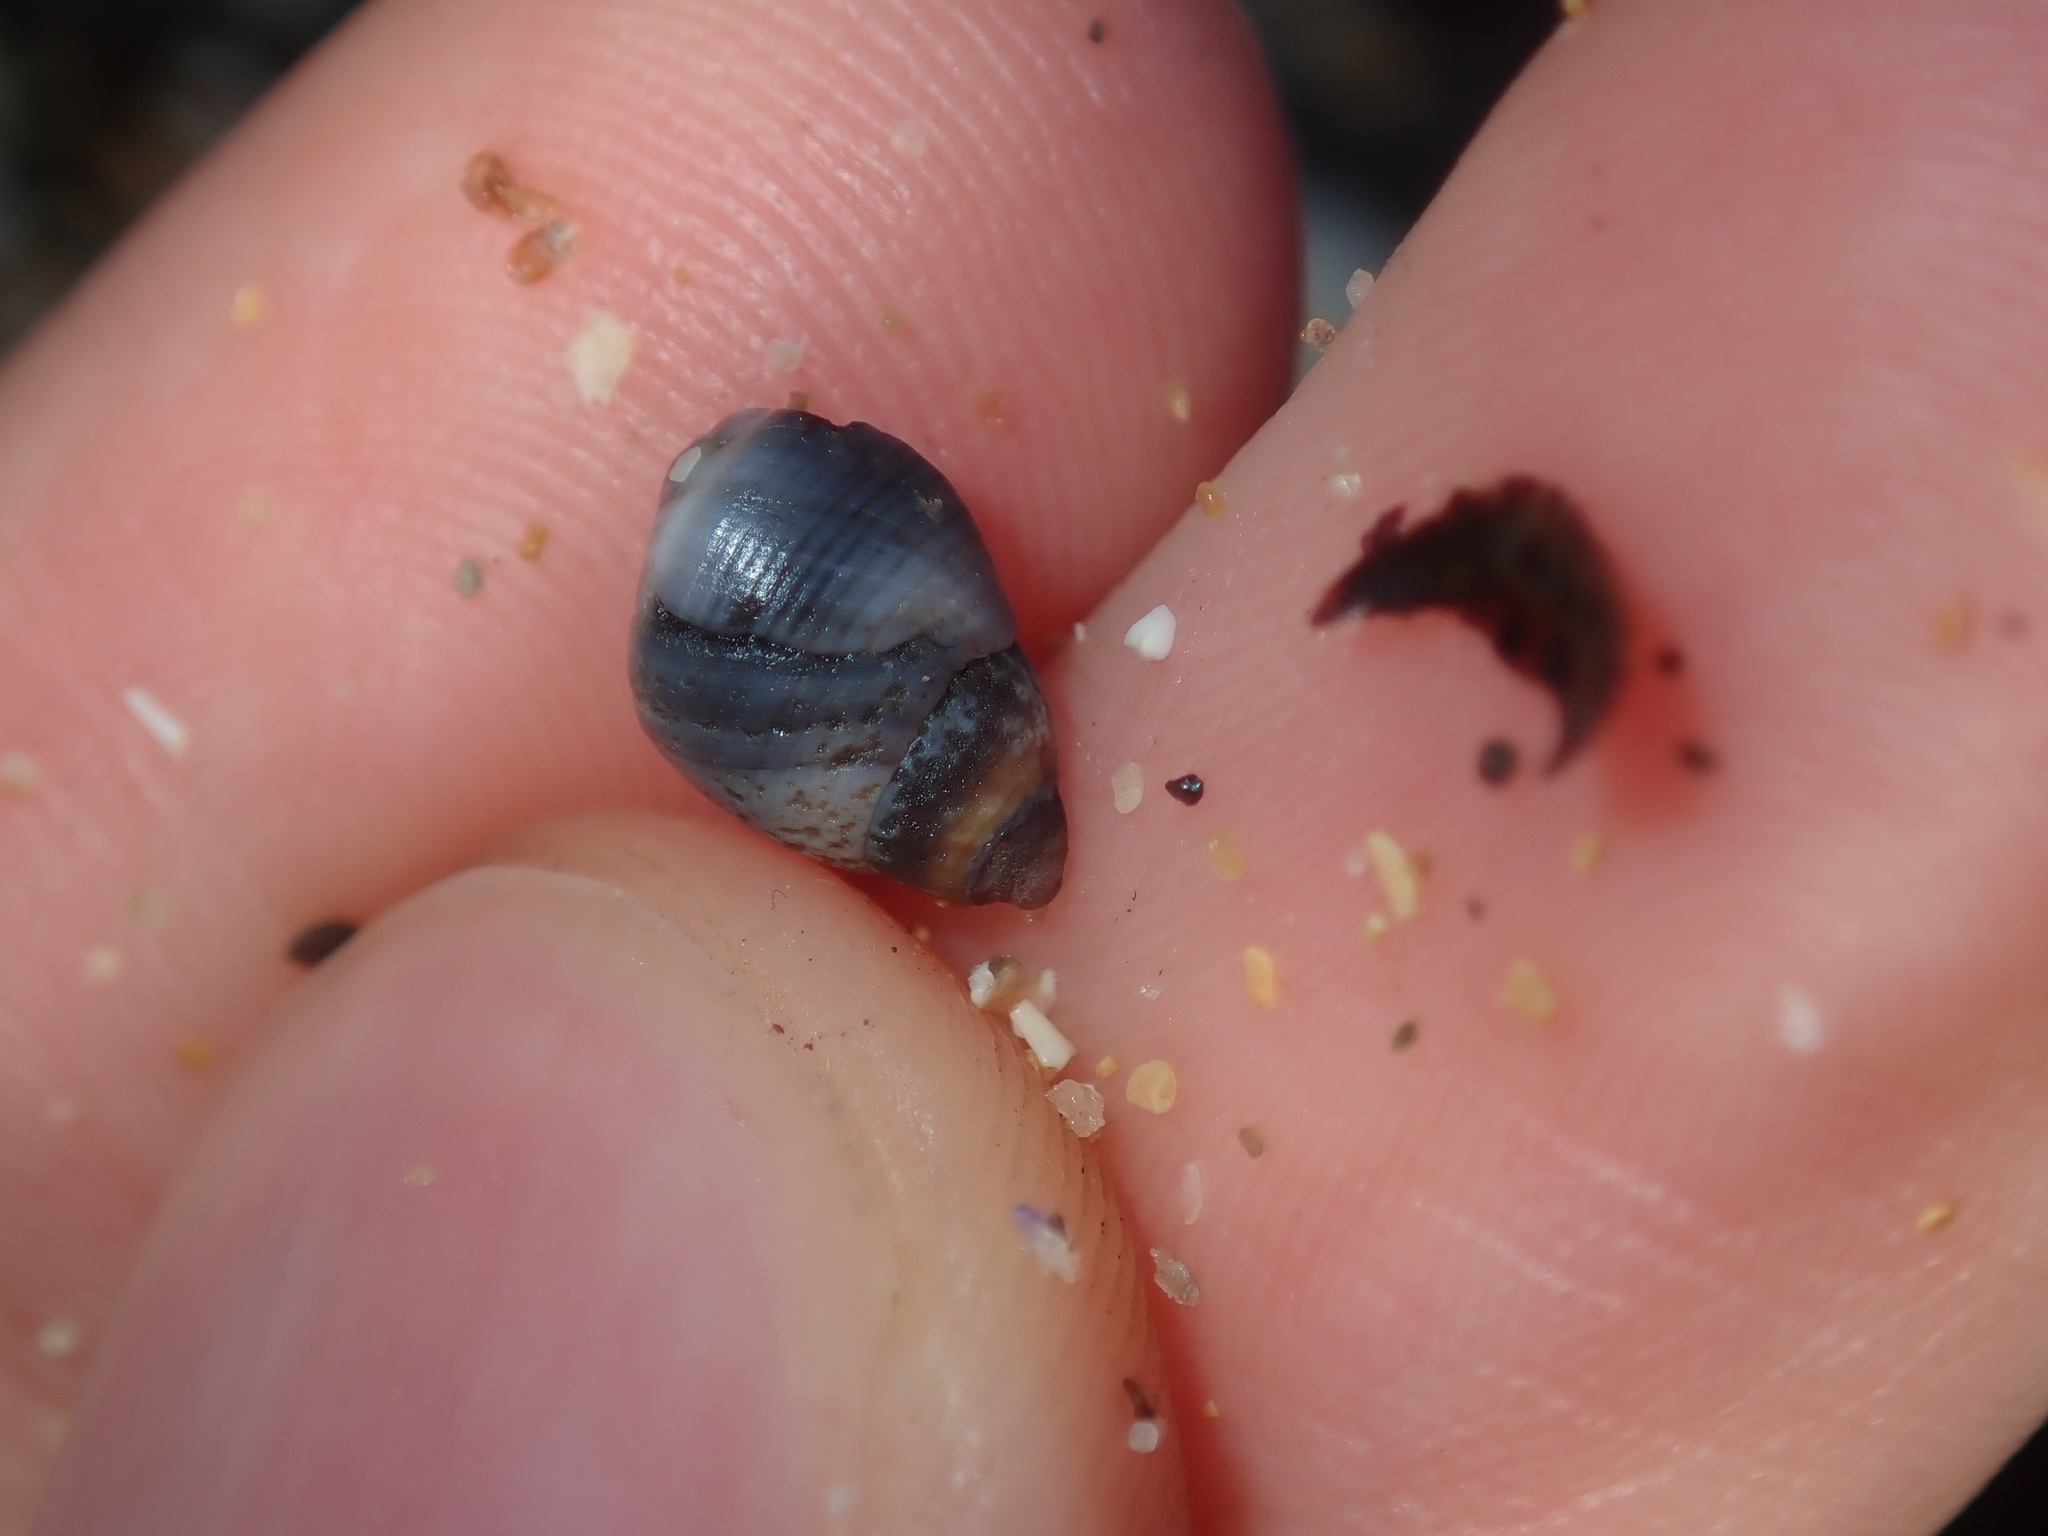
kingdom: Animalia
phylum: Mollusca
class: Gastropoda
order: Littorinimorpha
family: Littorinidae
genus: Austrolittorina
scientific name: Austrolittorina unifasciata
